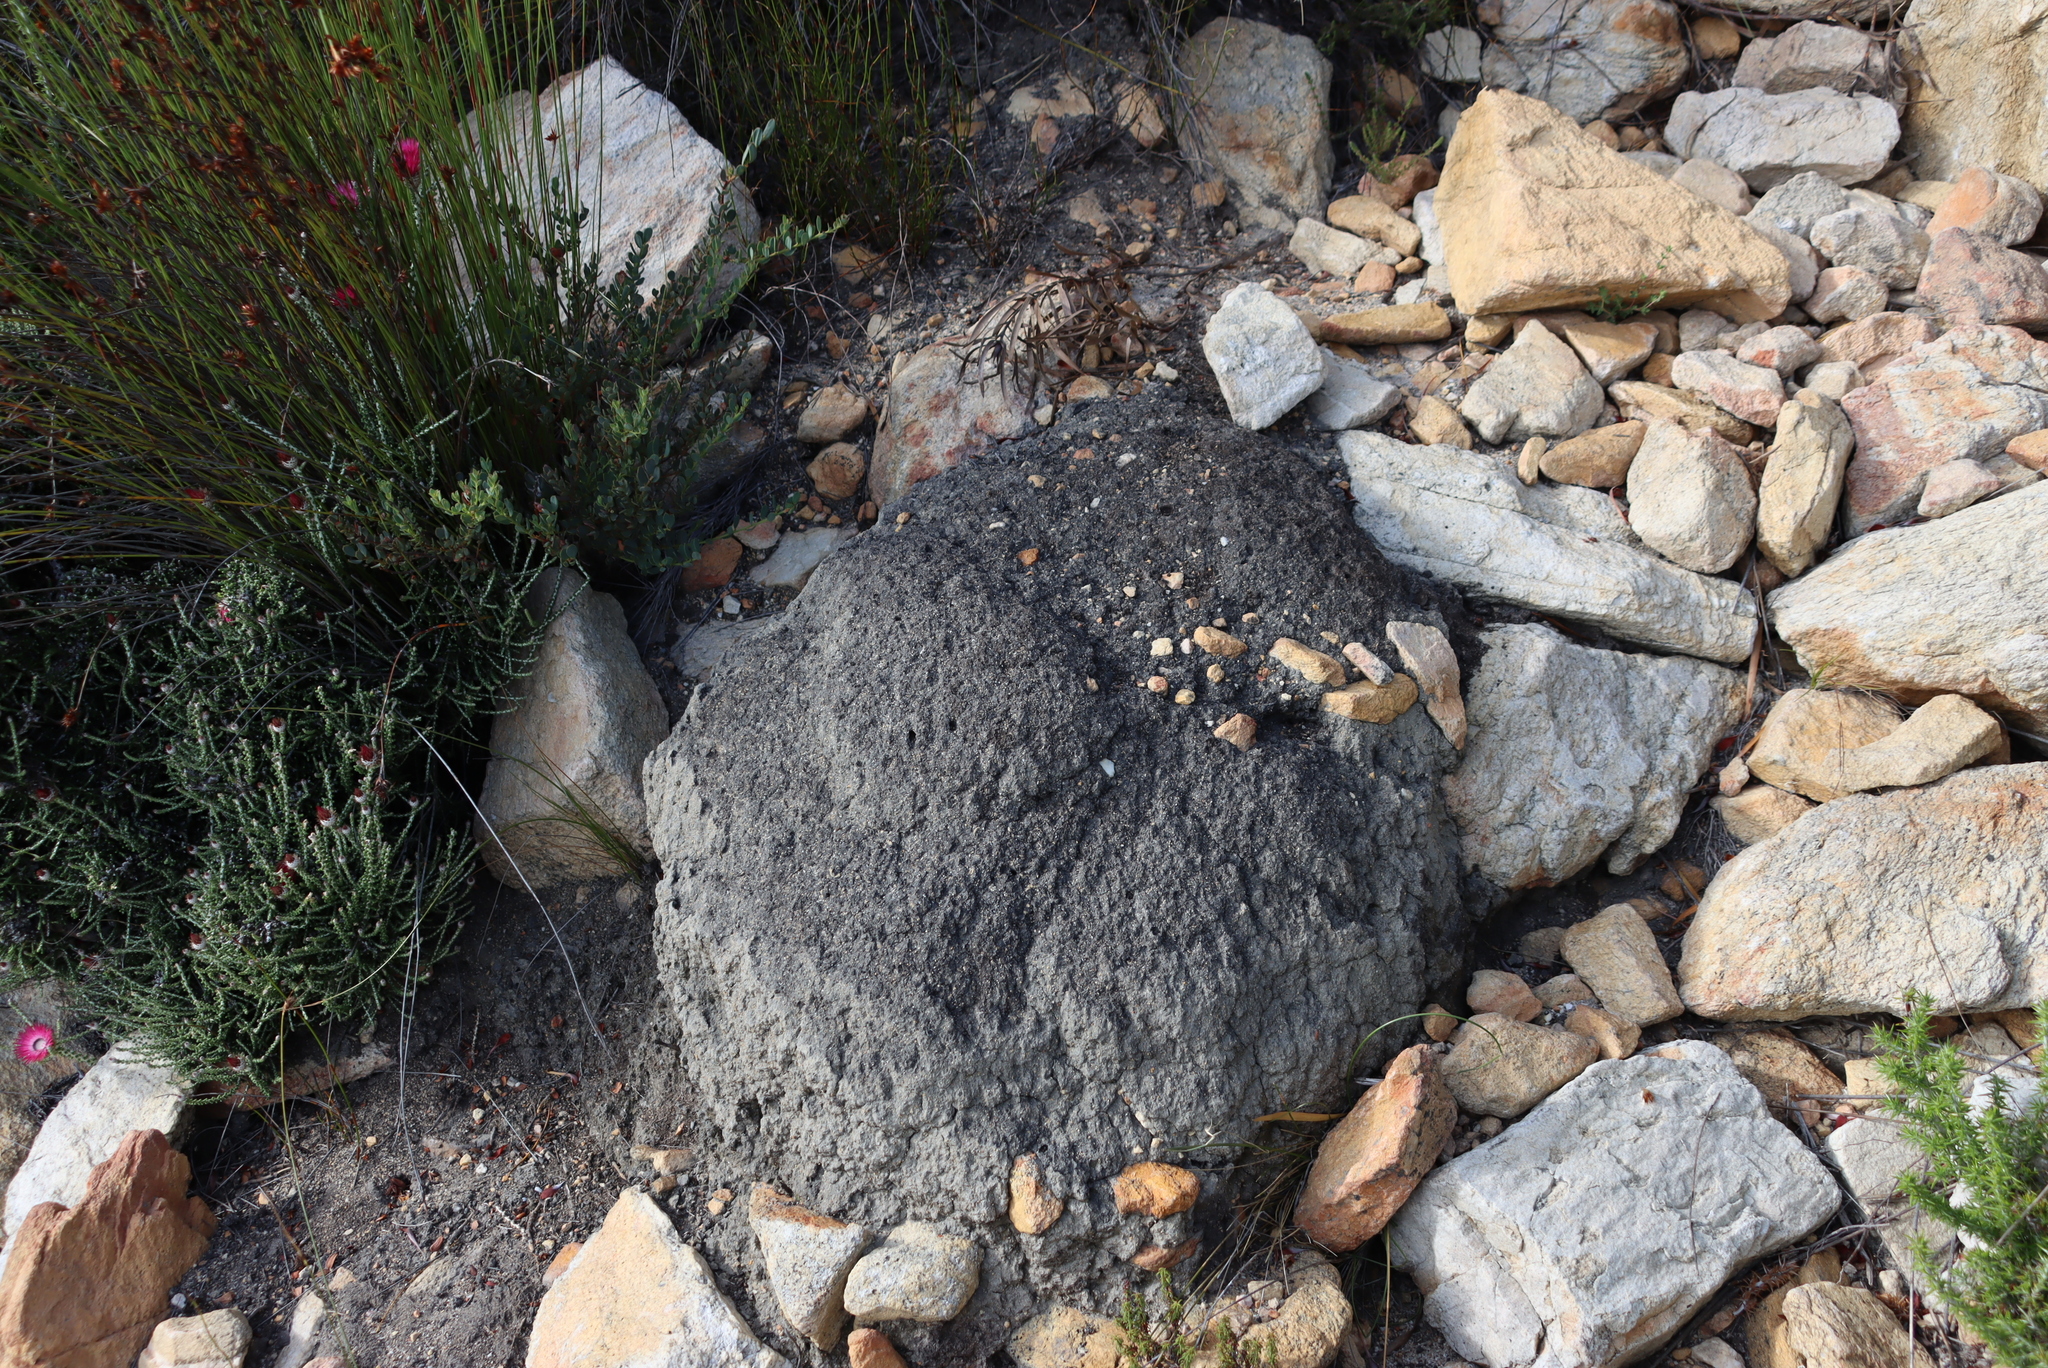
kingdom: Animalia
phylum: Arthropoda
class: Insecta
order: Blattodea
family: Termitidae
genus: Amitermes
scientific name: Amitermes hastatus
